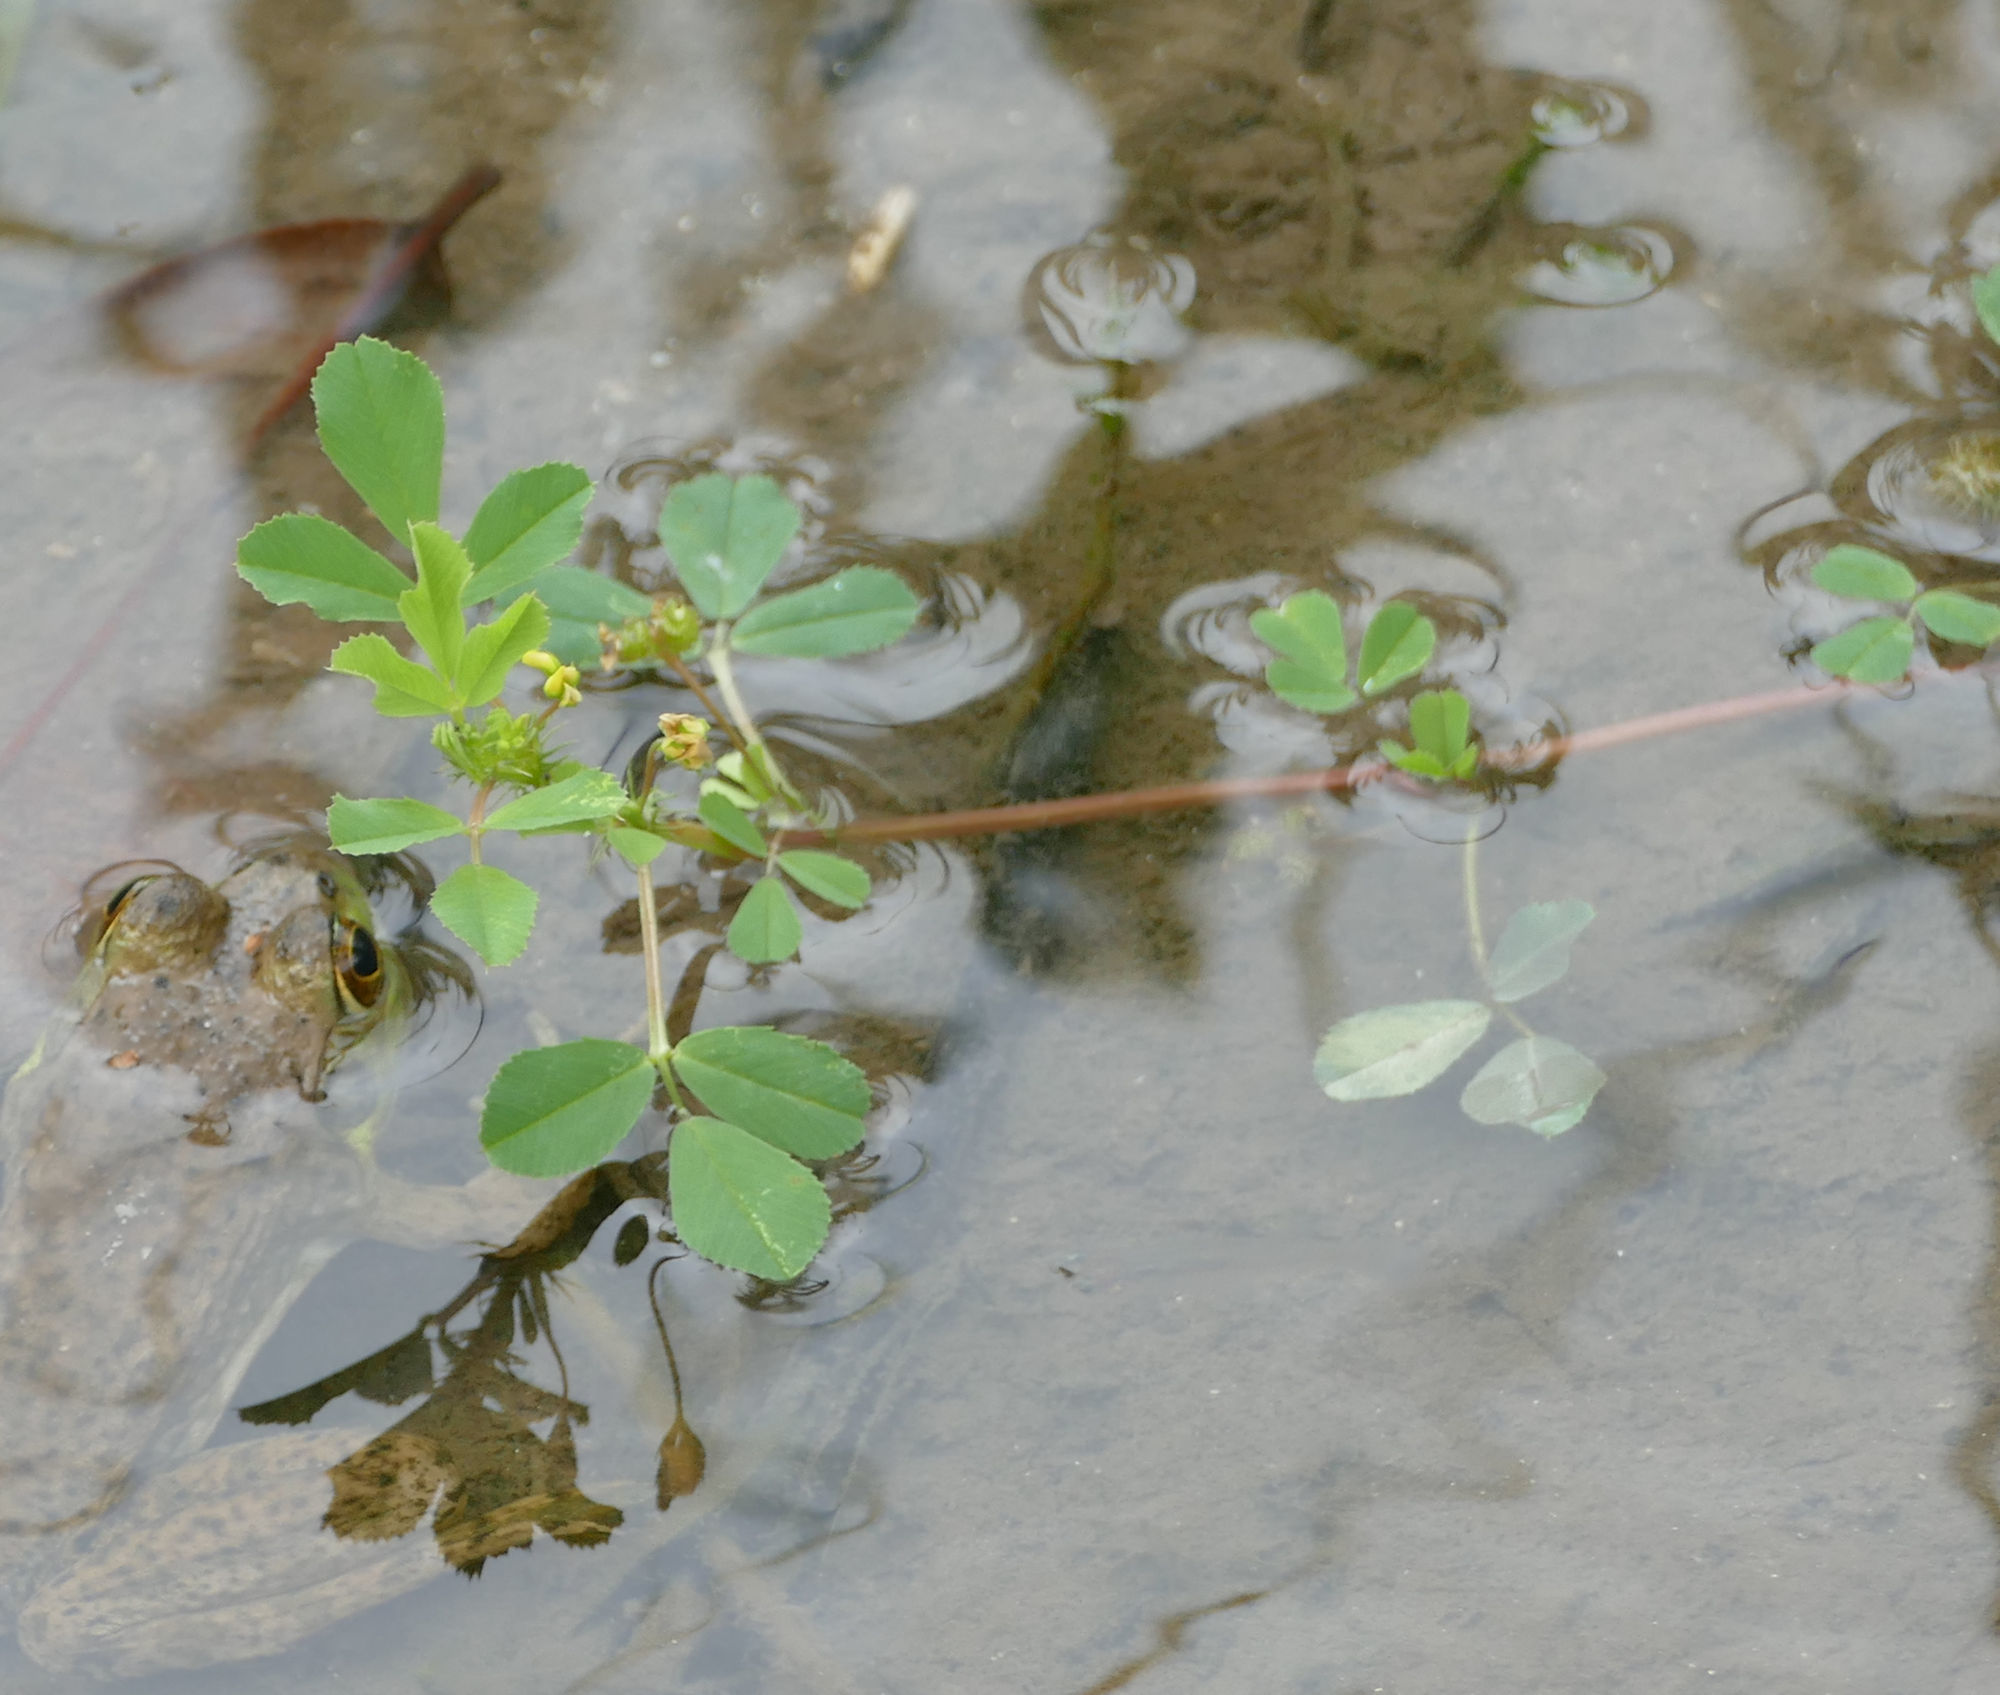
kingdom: Plantae
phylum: Tracheophyta
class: Magnoliopsida
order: Fabales
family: Fabaceae
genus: Medicago
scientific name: Medicago polymorpha
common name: Burclover
